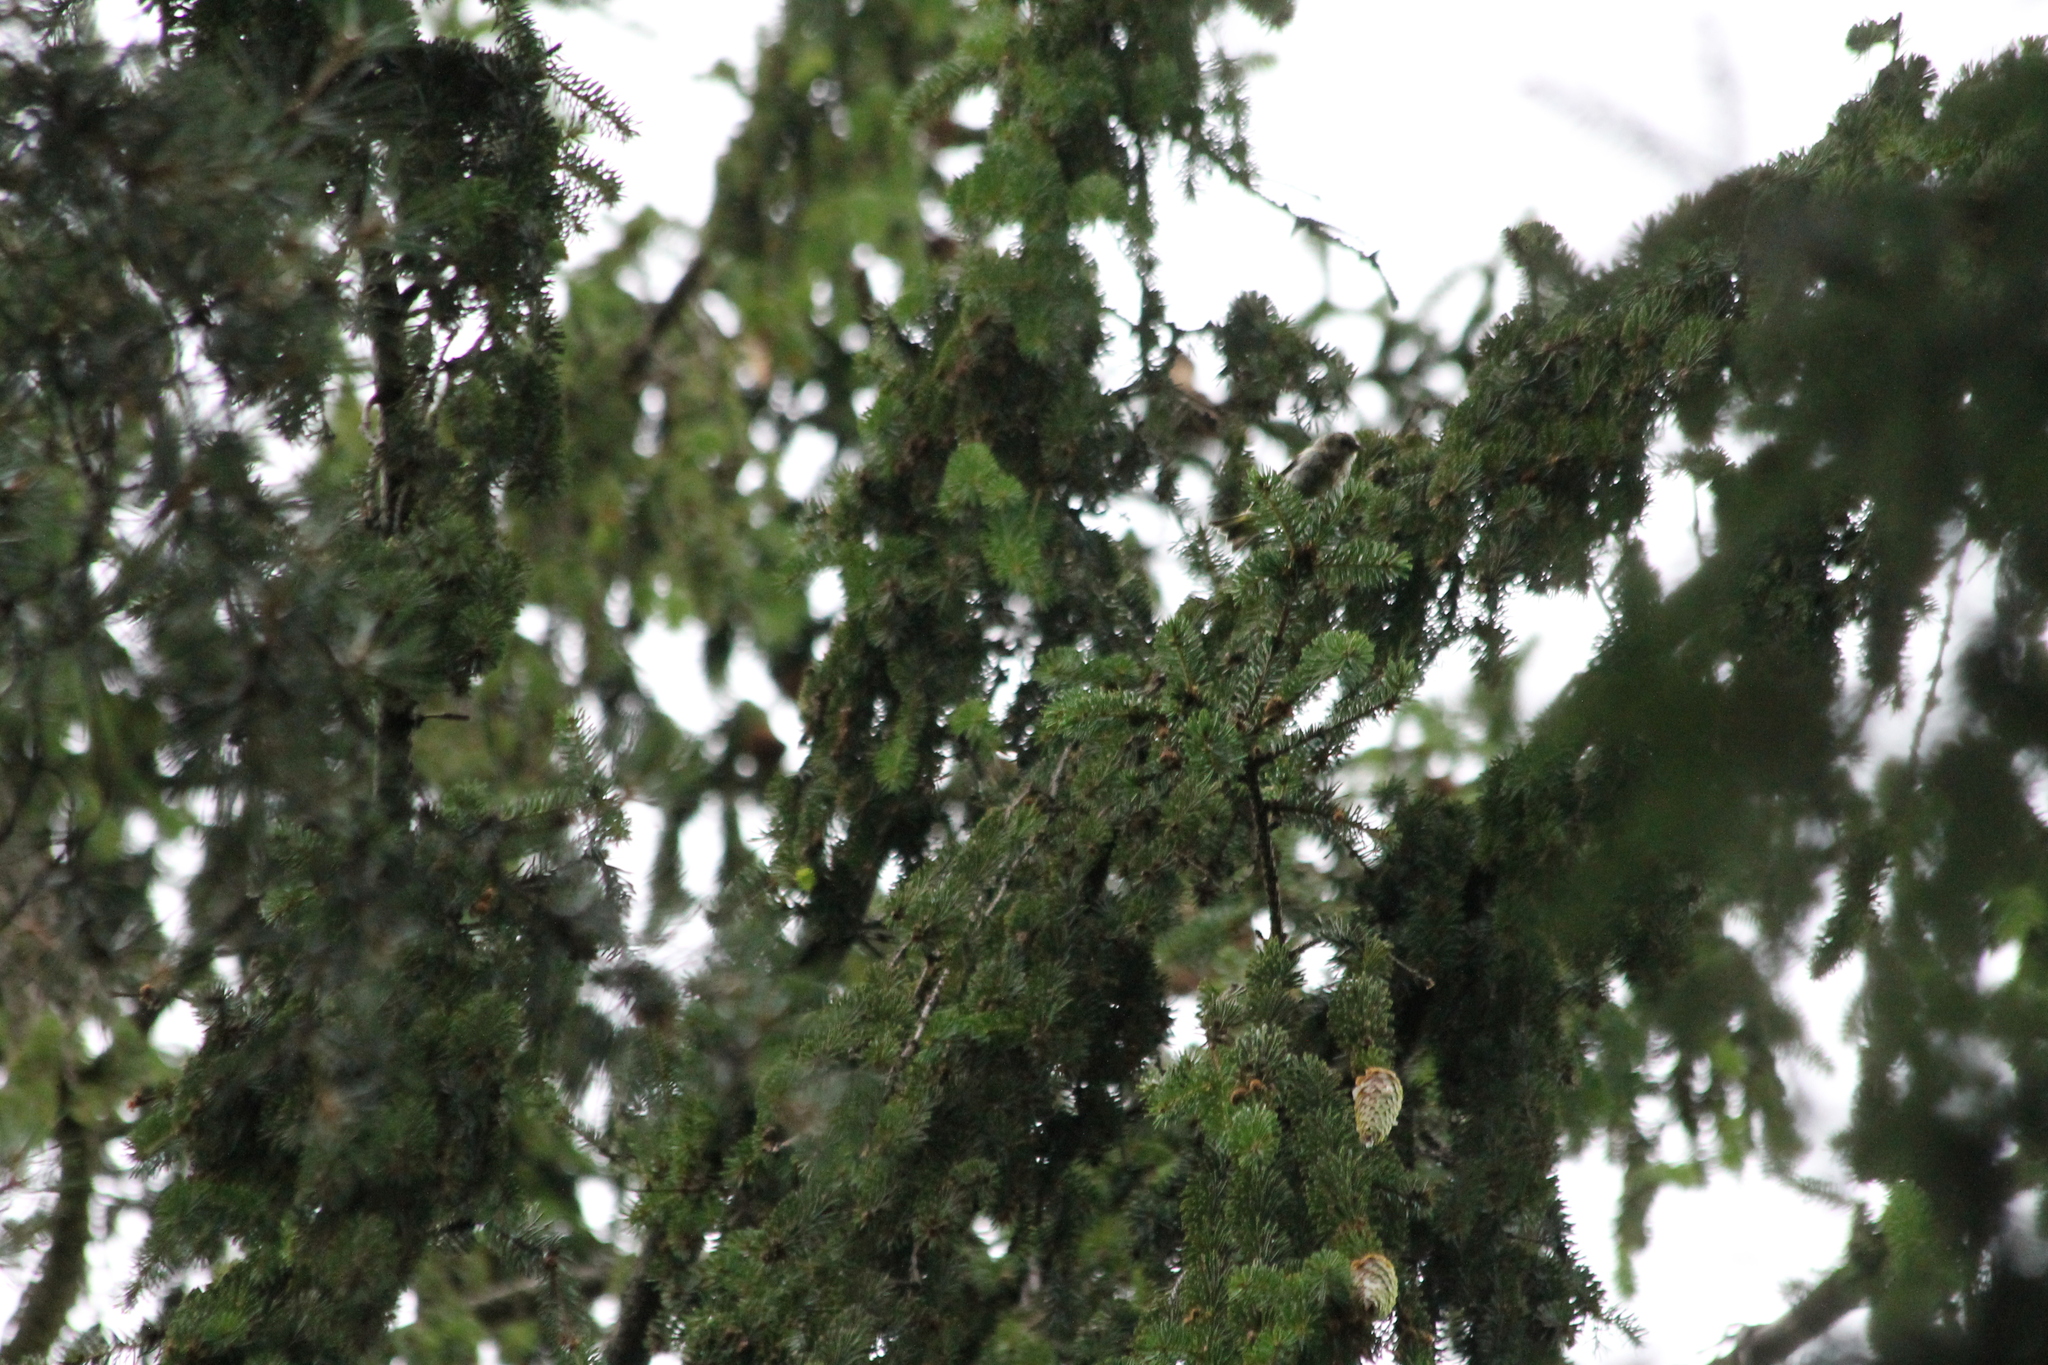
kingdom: Animalia
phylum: Chordata
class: Aves
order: Passeriformes
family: Fringillidae
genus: Spinus
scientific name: Spinus spinus
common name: Eurasian siskin
